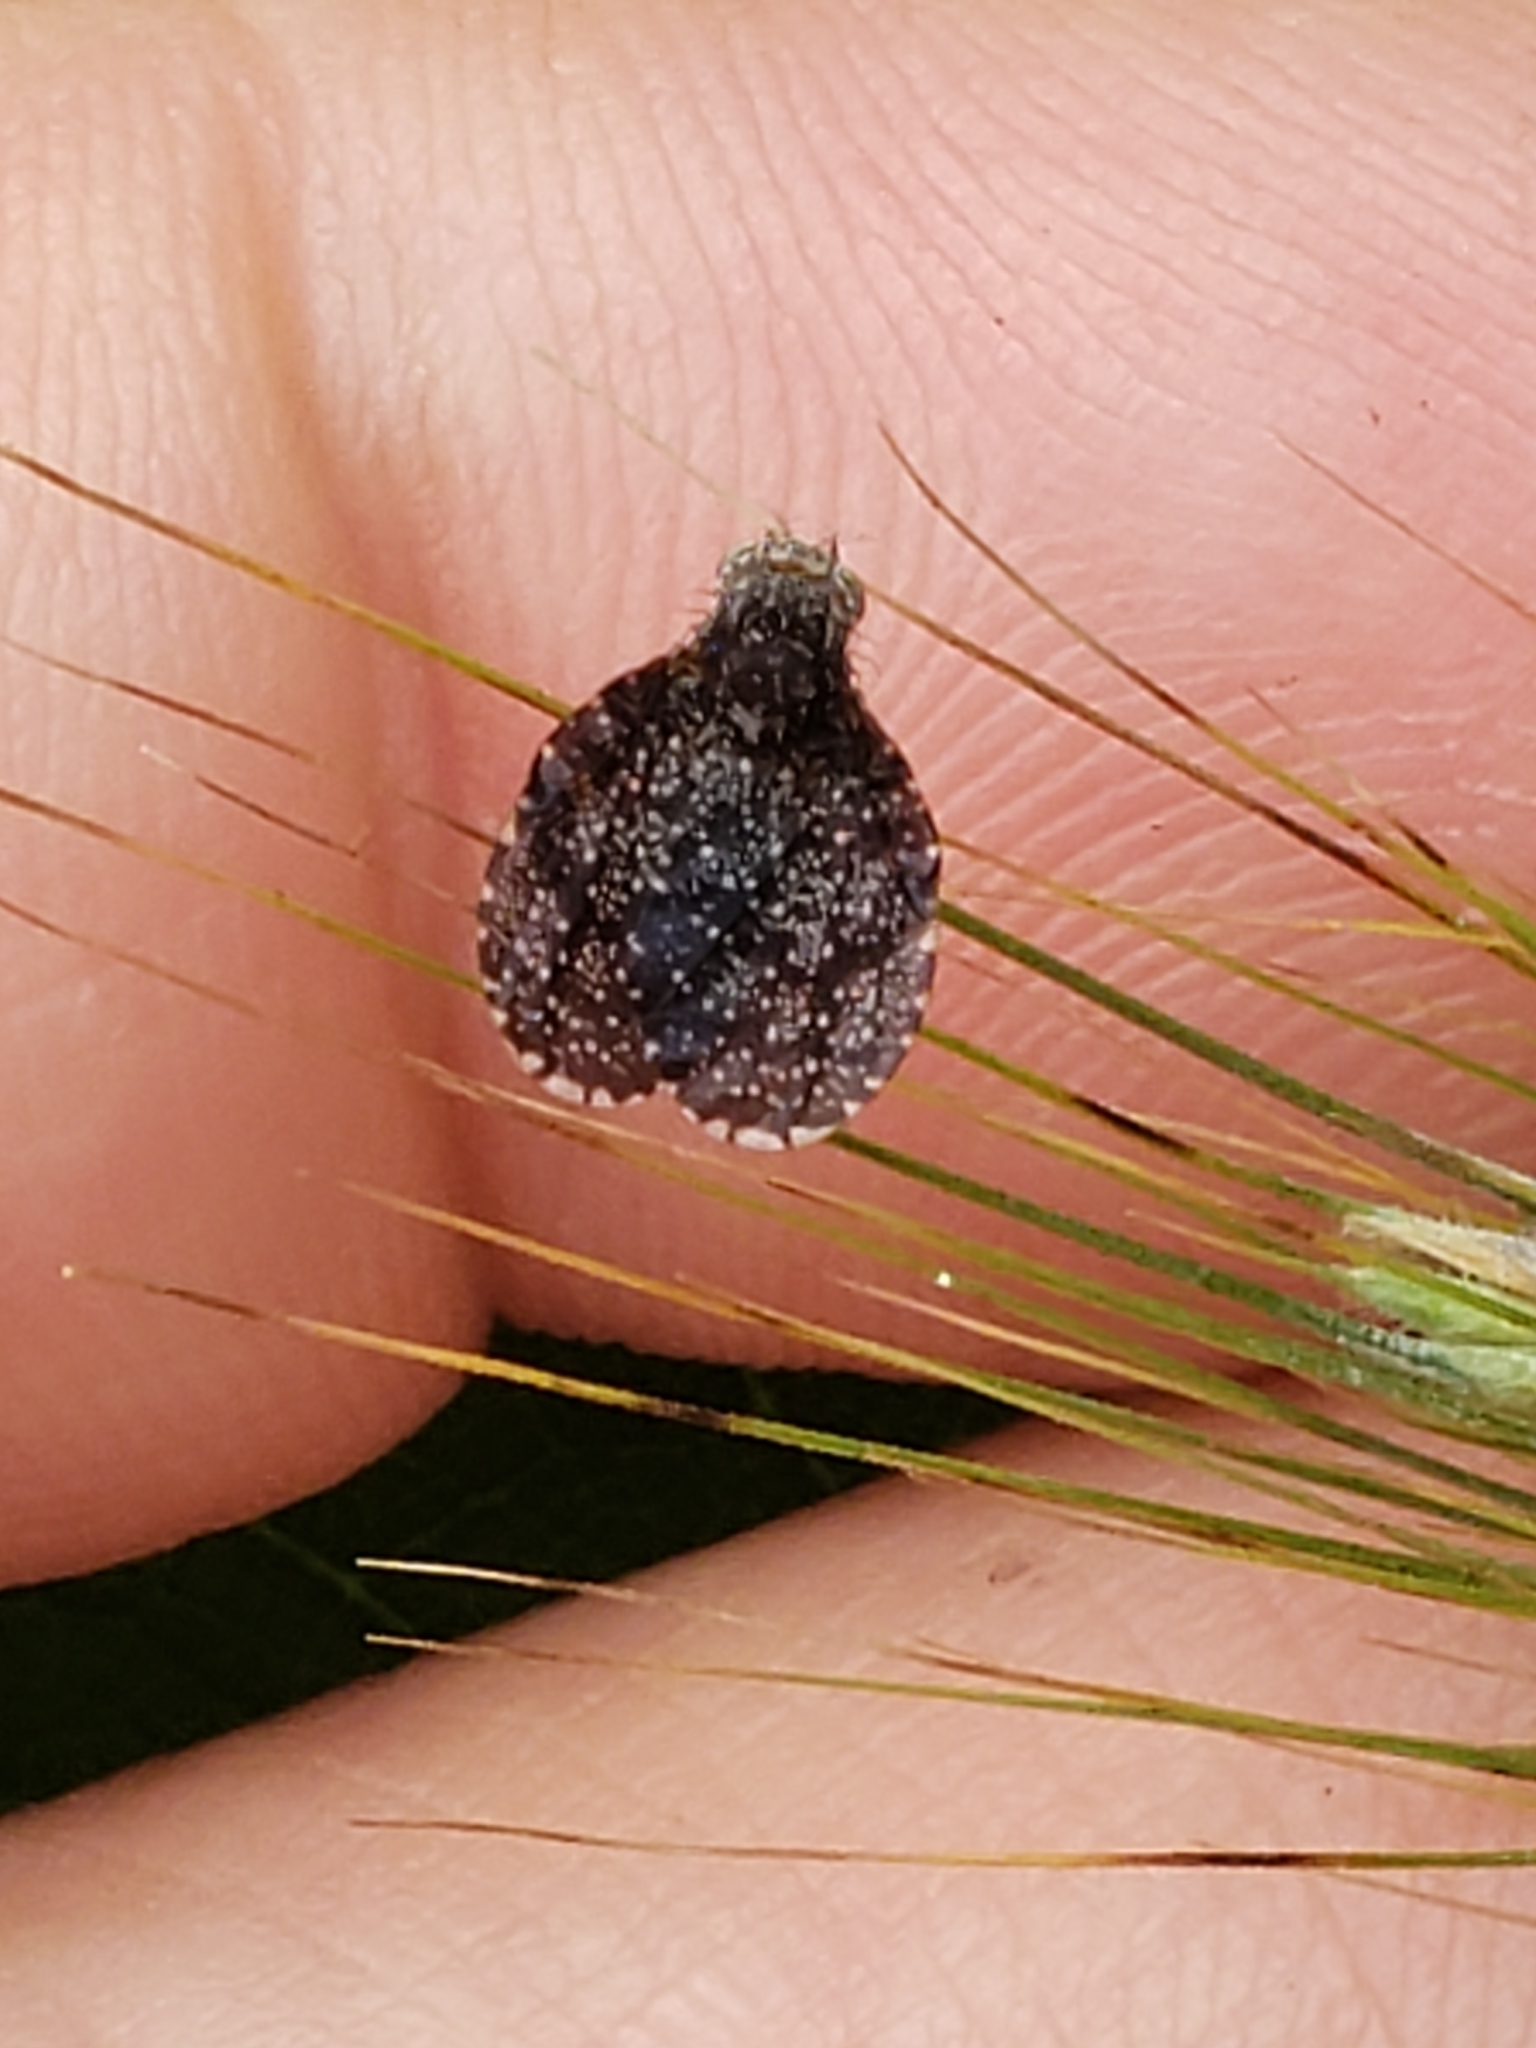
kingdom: Animalia
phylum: Arthropoda
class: Insecta
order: Diptera
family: Tephritidae
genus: Eutreta
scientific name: Eutreta rotundipennis
